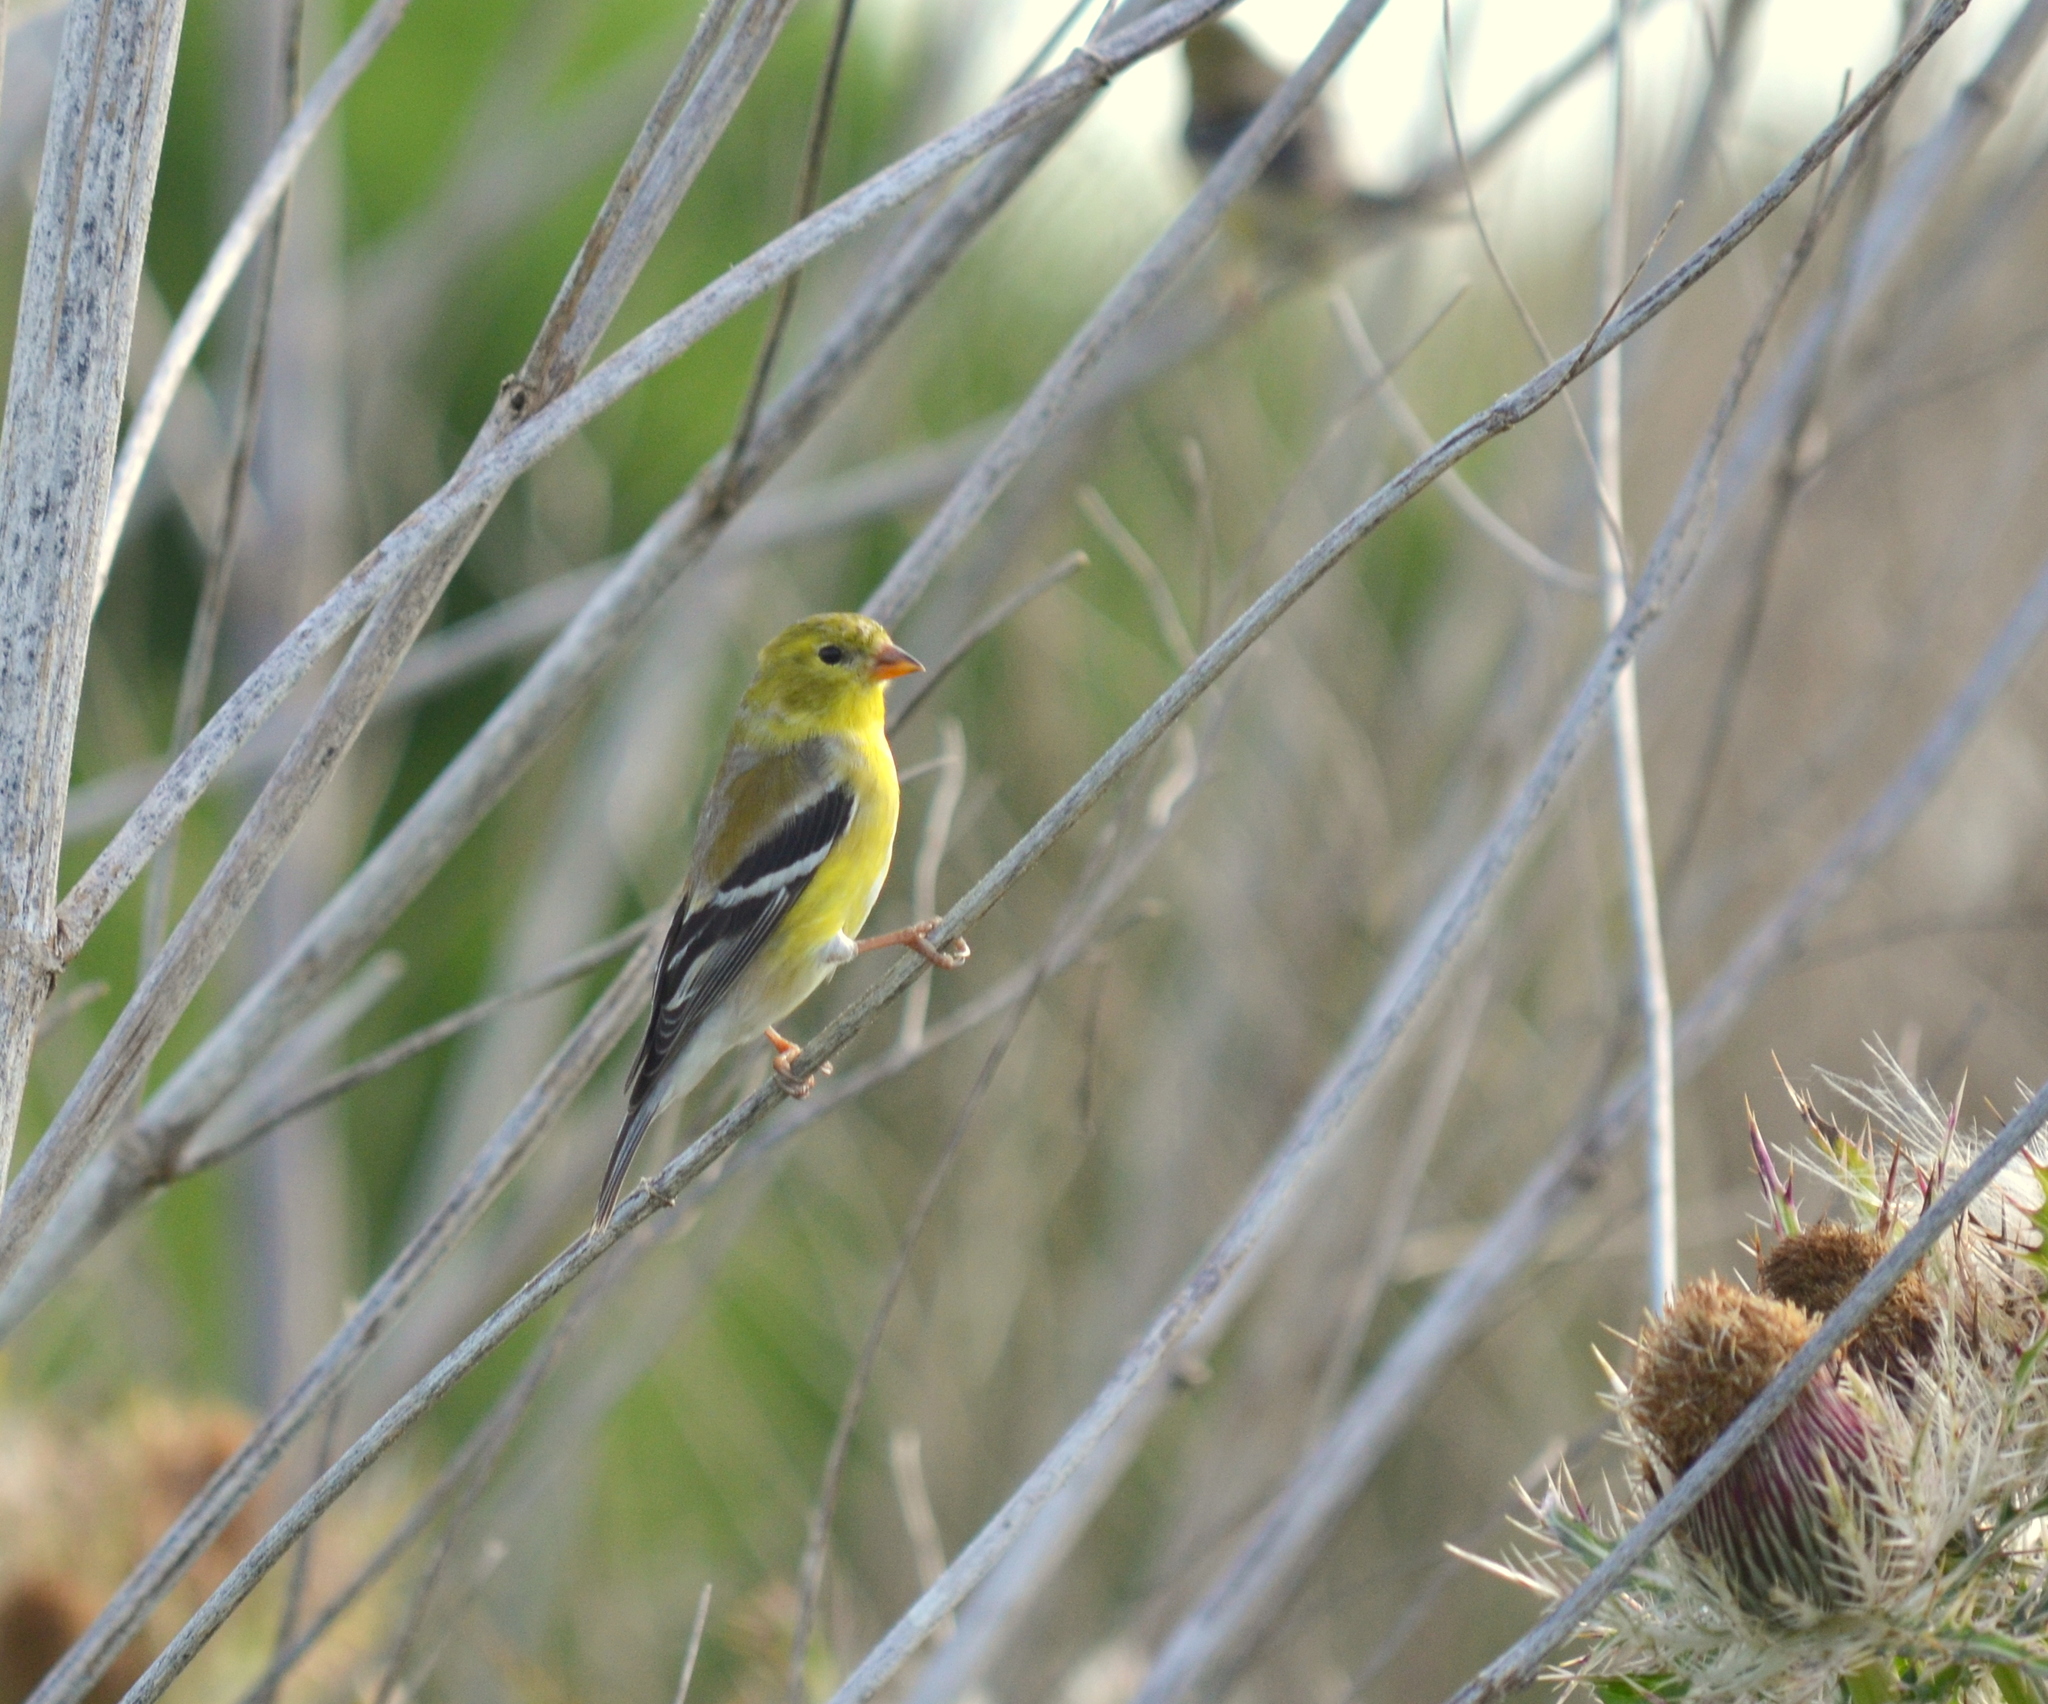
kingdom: Animalia
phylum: Chordata
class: Aves
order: Passeriformes
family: Fringillidae
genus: Spinus
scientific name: Spinus tristis
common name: American goldfinch
